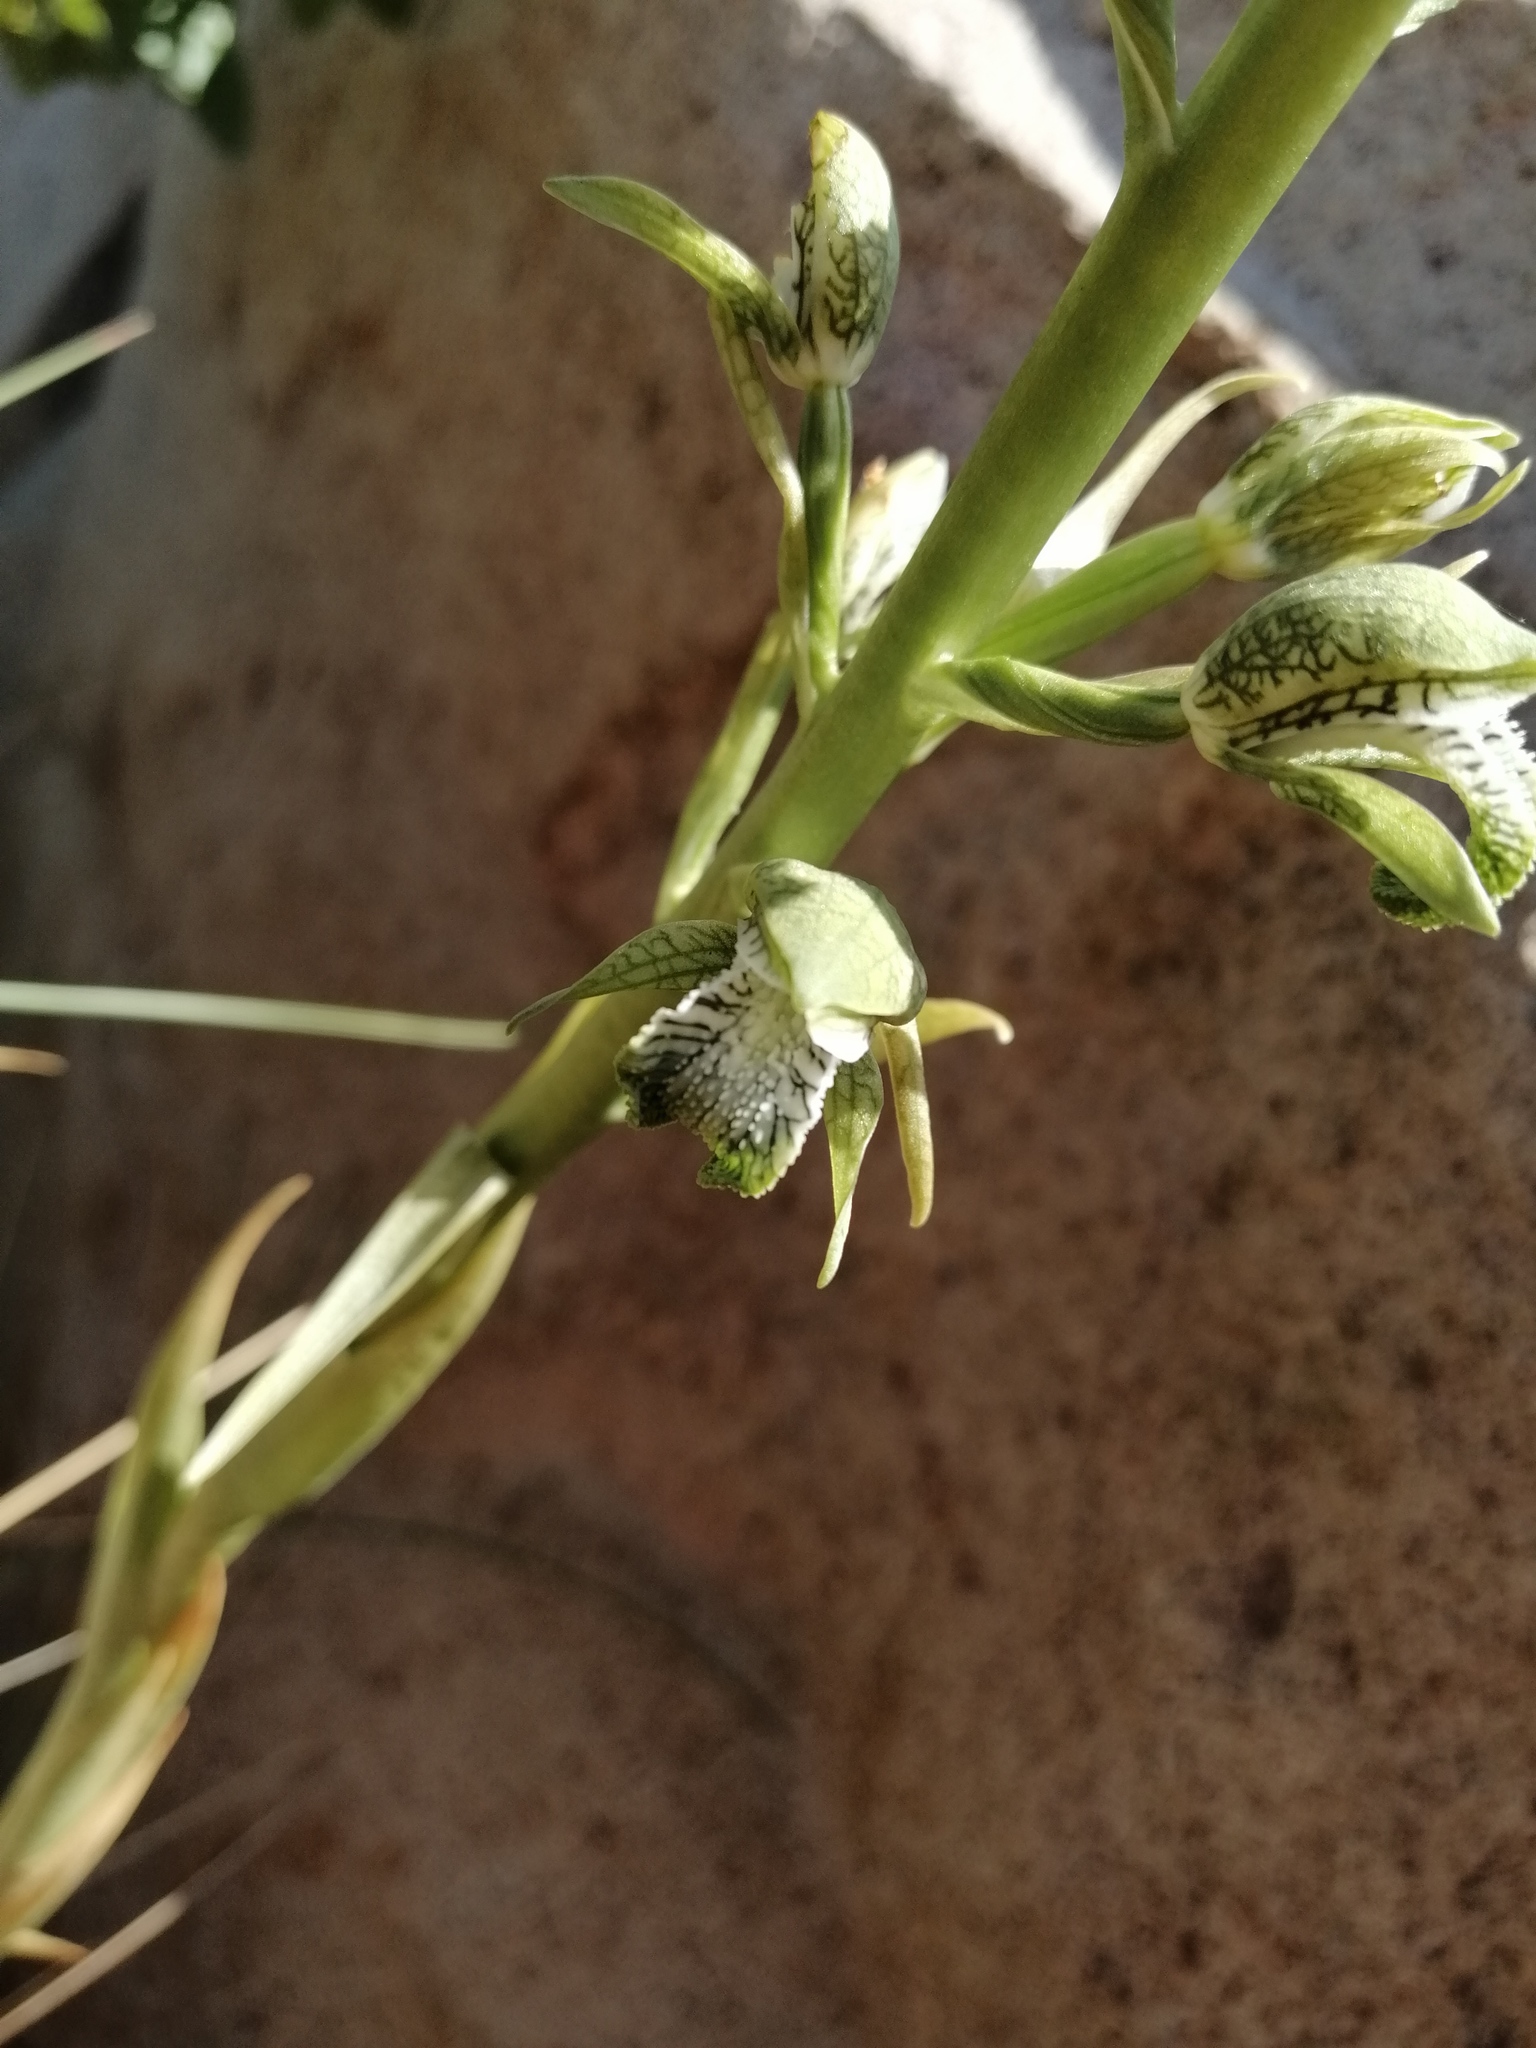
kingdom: Plantae
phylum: Tracheophyta
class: Liliopsida
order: Asparagales
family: Orchidaceae
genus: Chloraea
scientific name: Chloraea cylindrostachya
